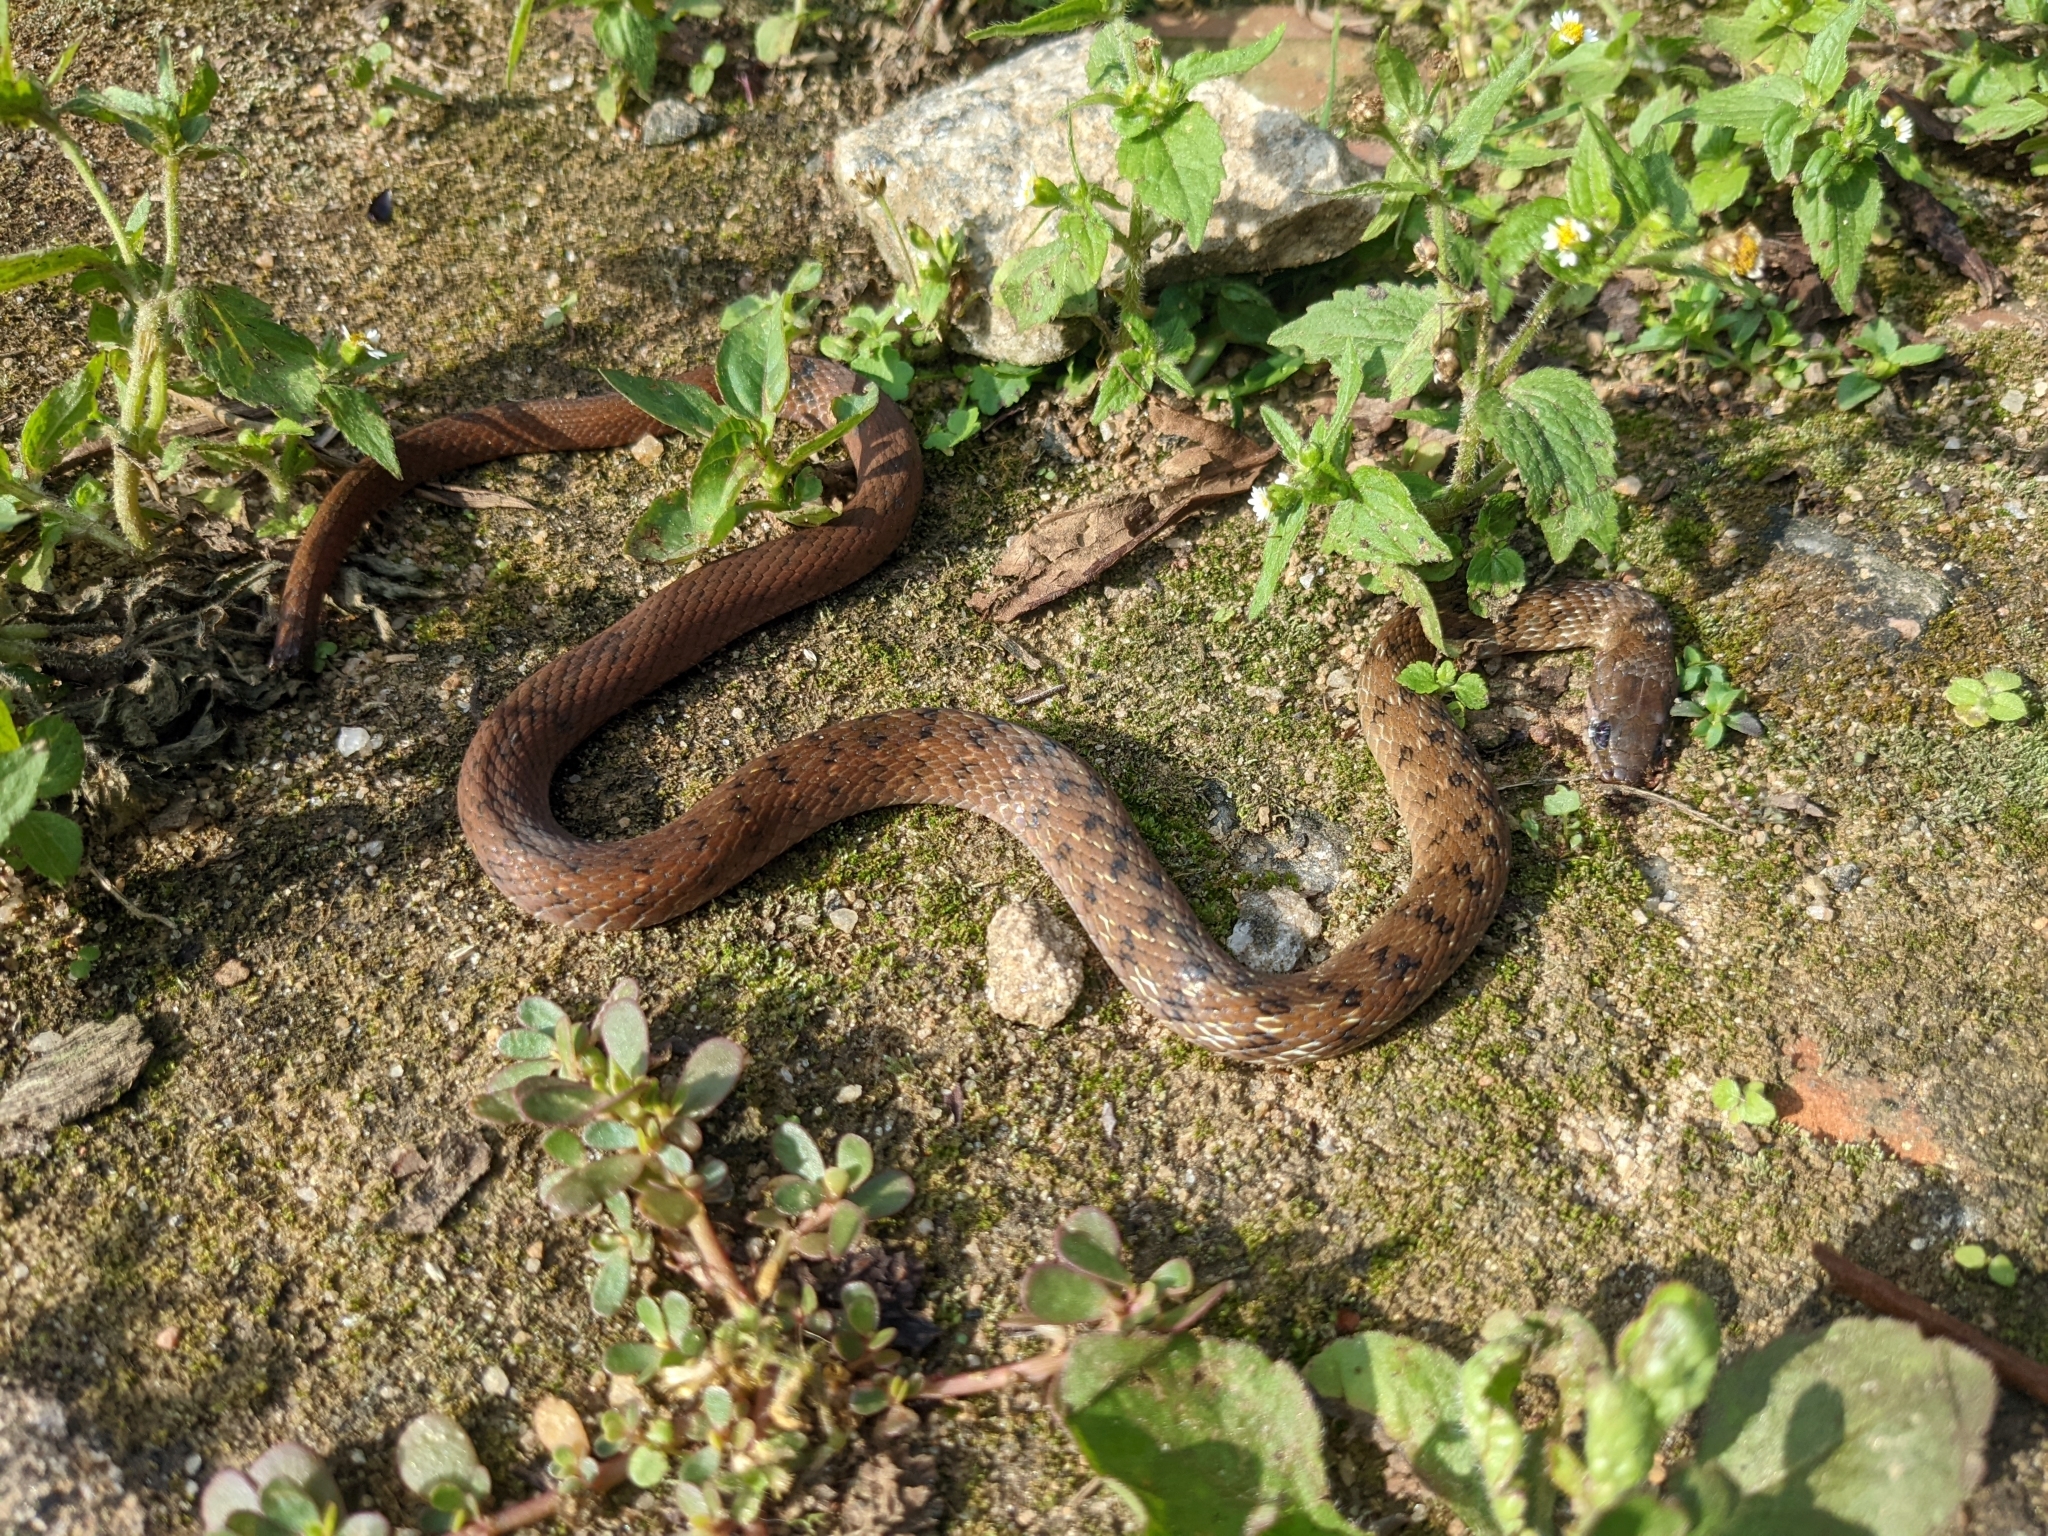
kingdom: Animalia
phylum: Chordata
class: Squamata
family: Colubridae
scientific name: Colubridae
